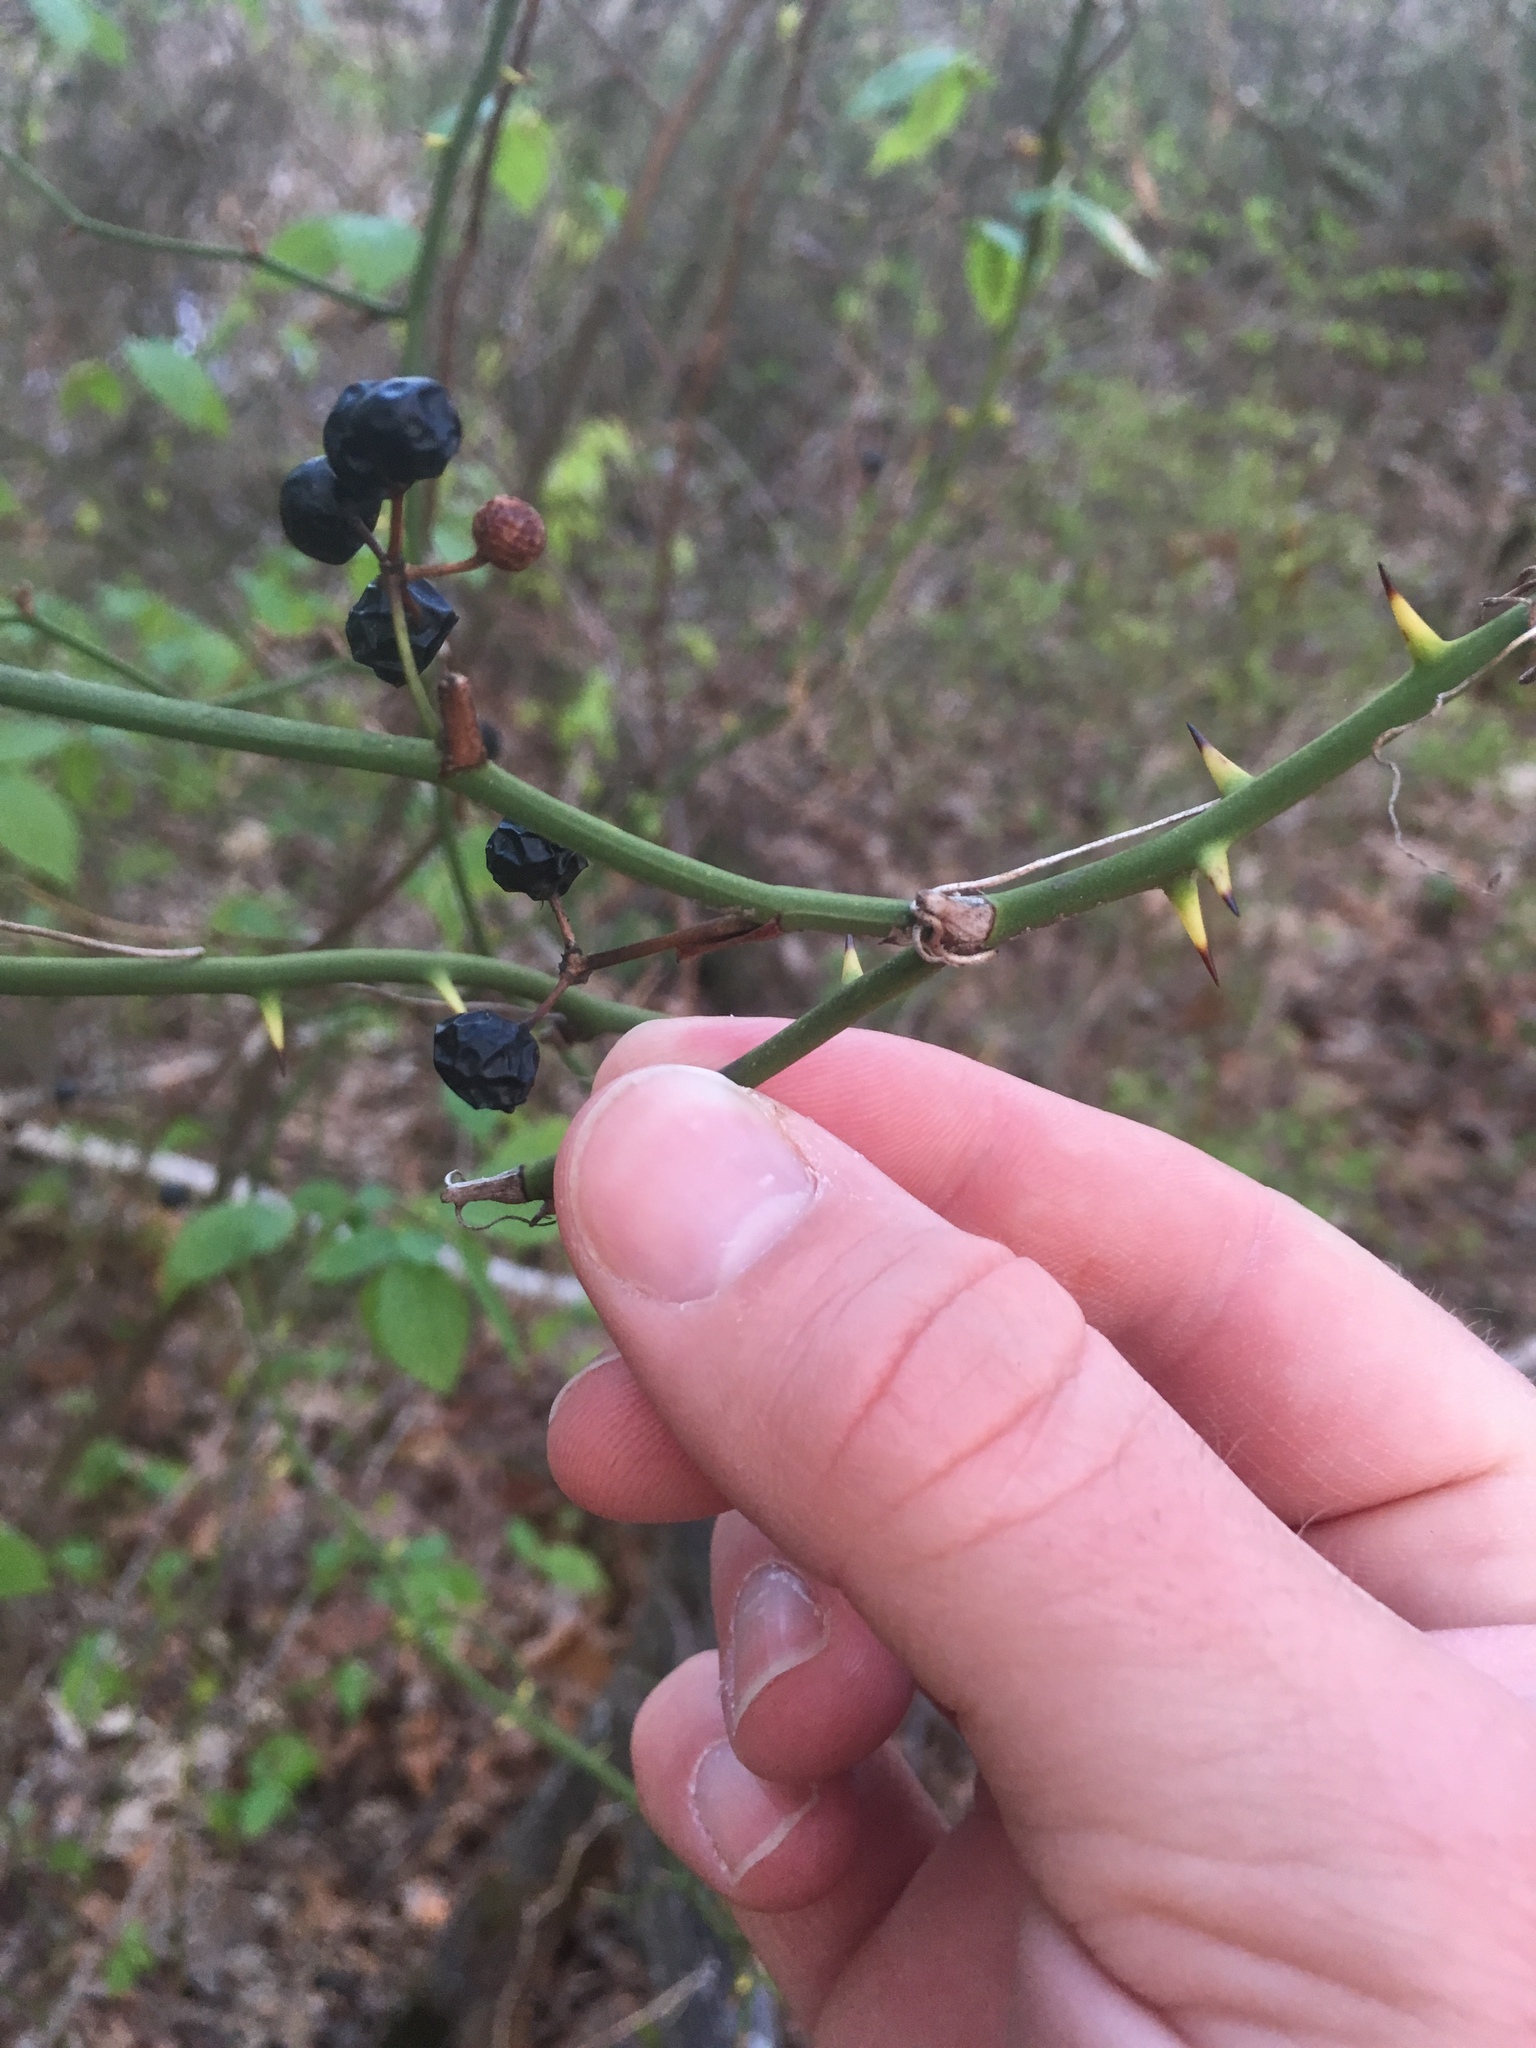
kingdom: Plantae
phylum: Tracheophyta
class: Liliopsida
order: Liliales
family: Smilacaceae
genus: Smilax
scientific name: Smilax rotundifolia
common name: Bullbriar
